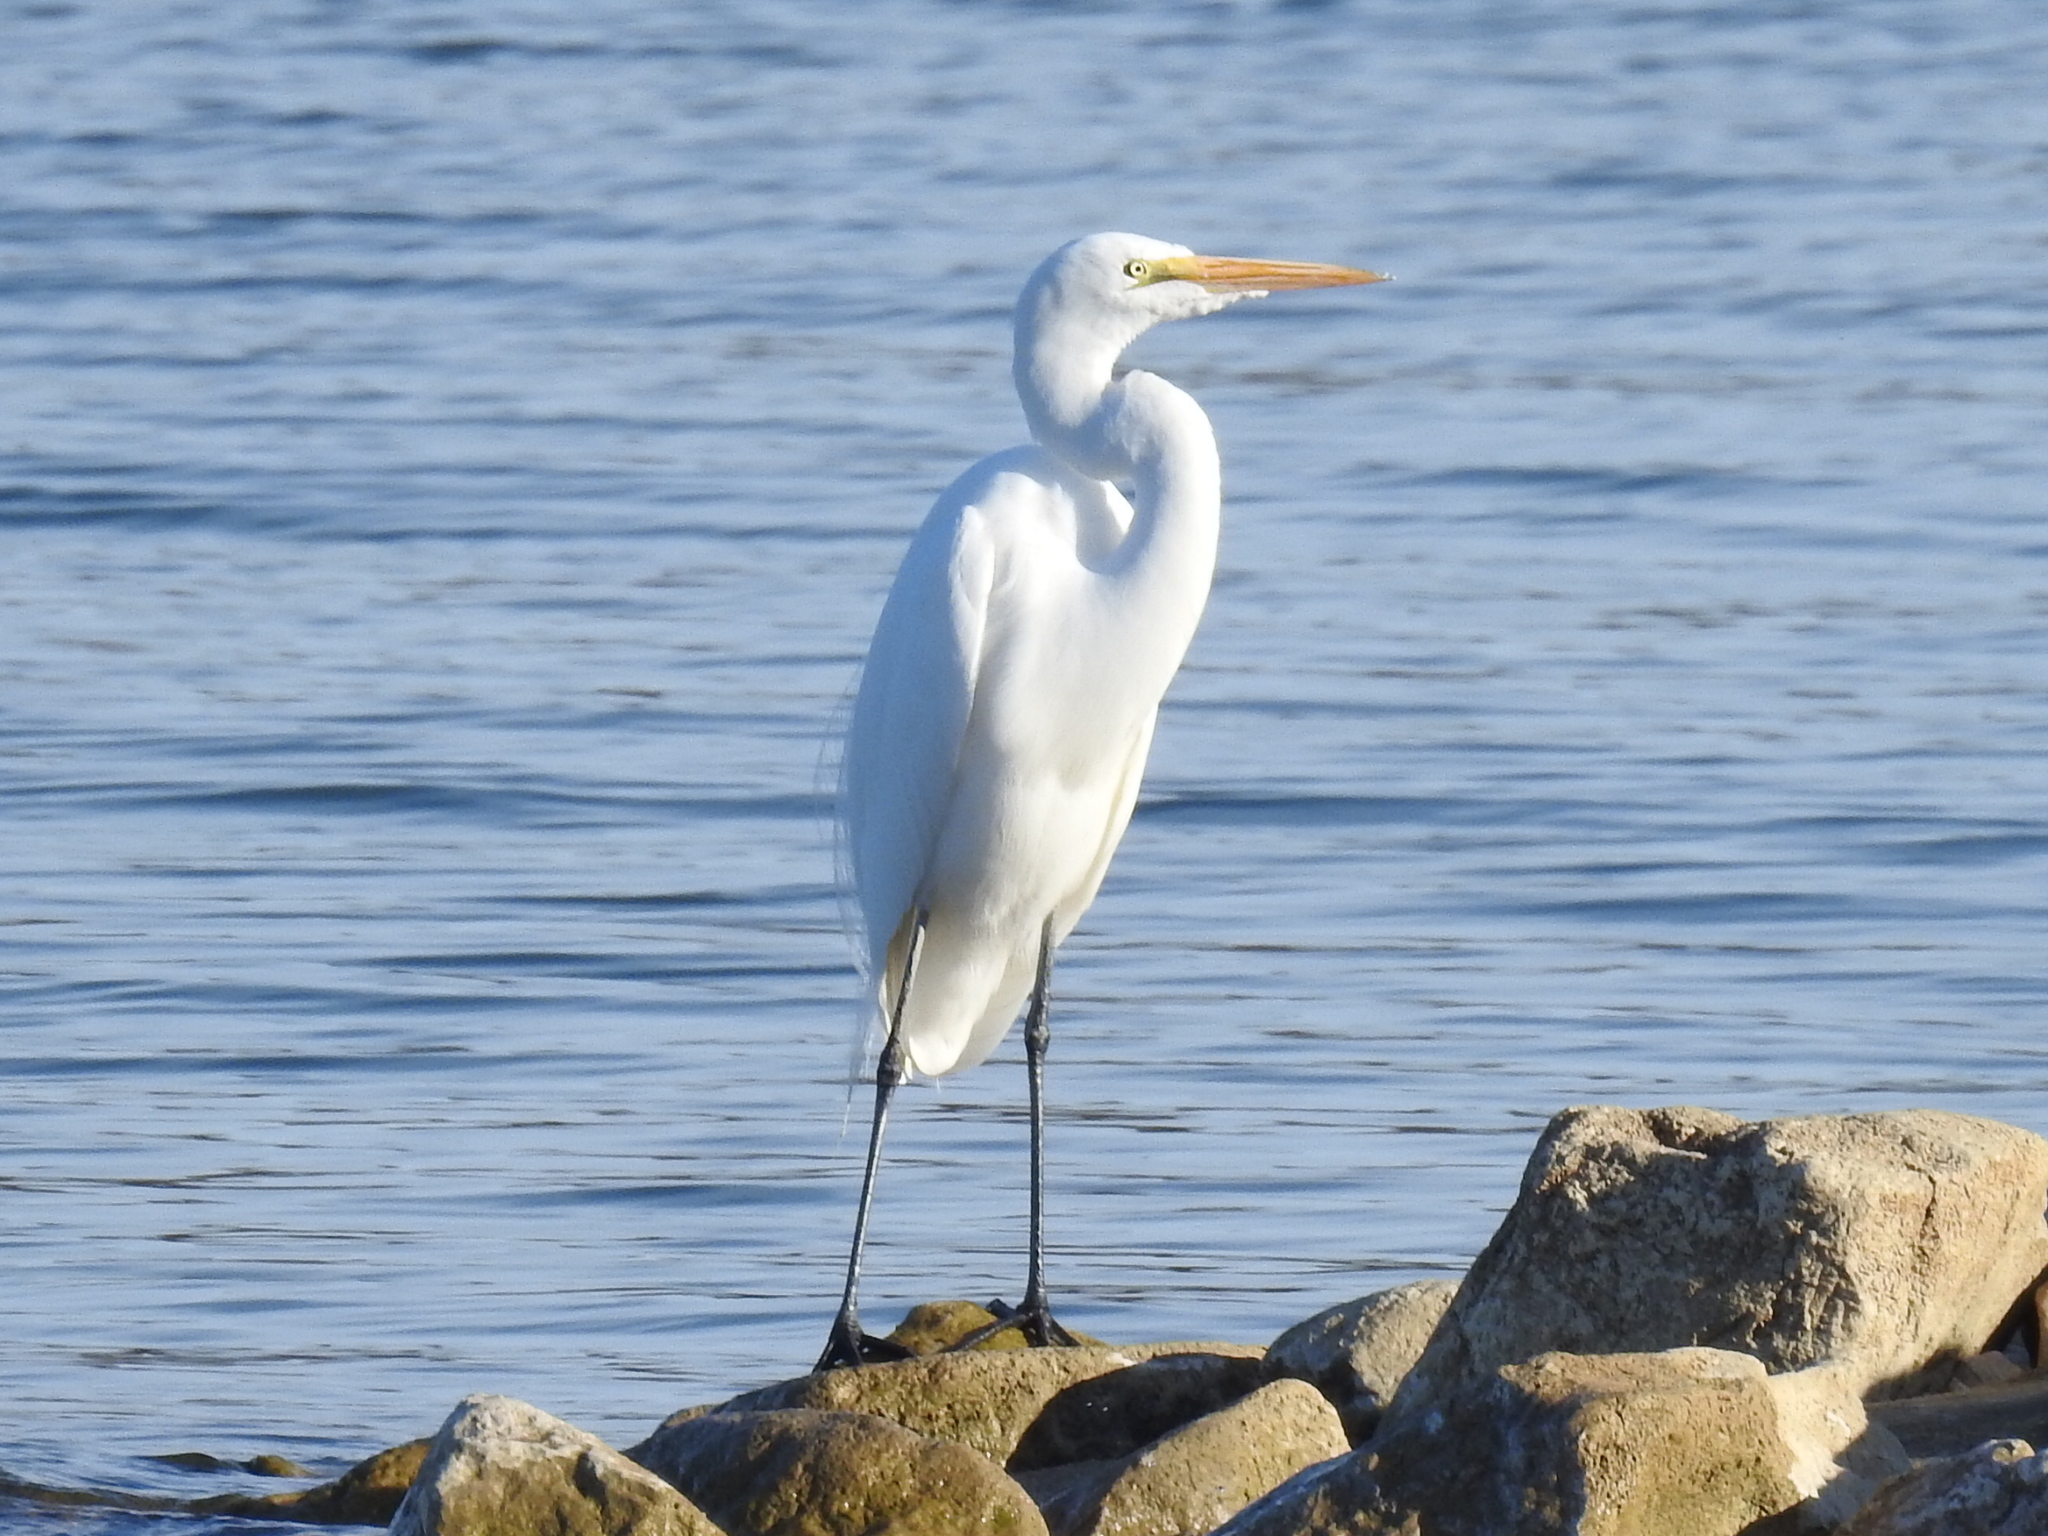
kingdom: Animalia
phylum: Chordata
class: Aves
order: Pelecaniformes
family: Ardeidae
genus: Ardea
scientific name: Ardea alba
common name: Great egret
